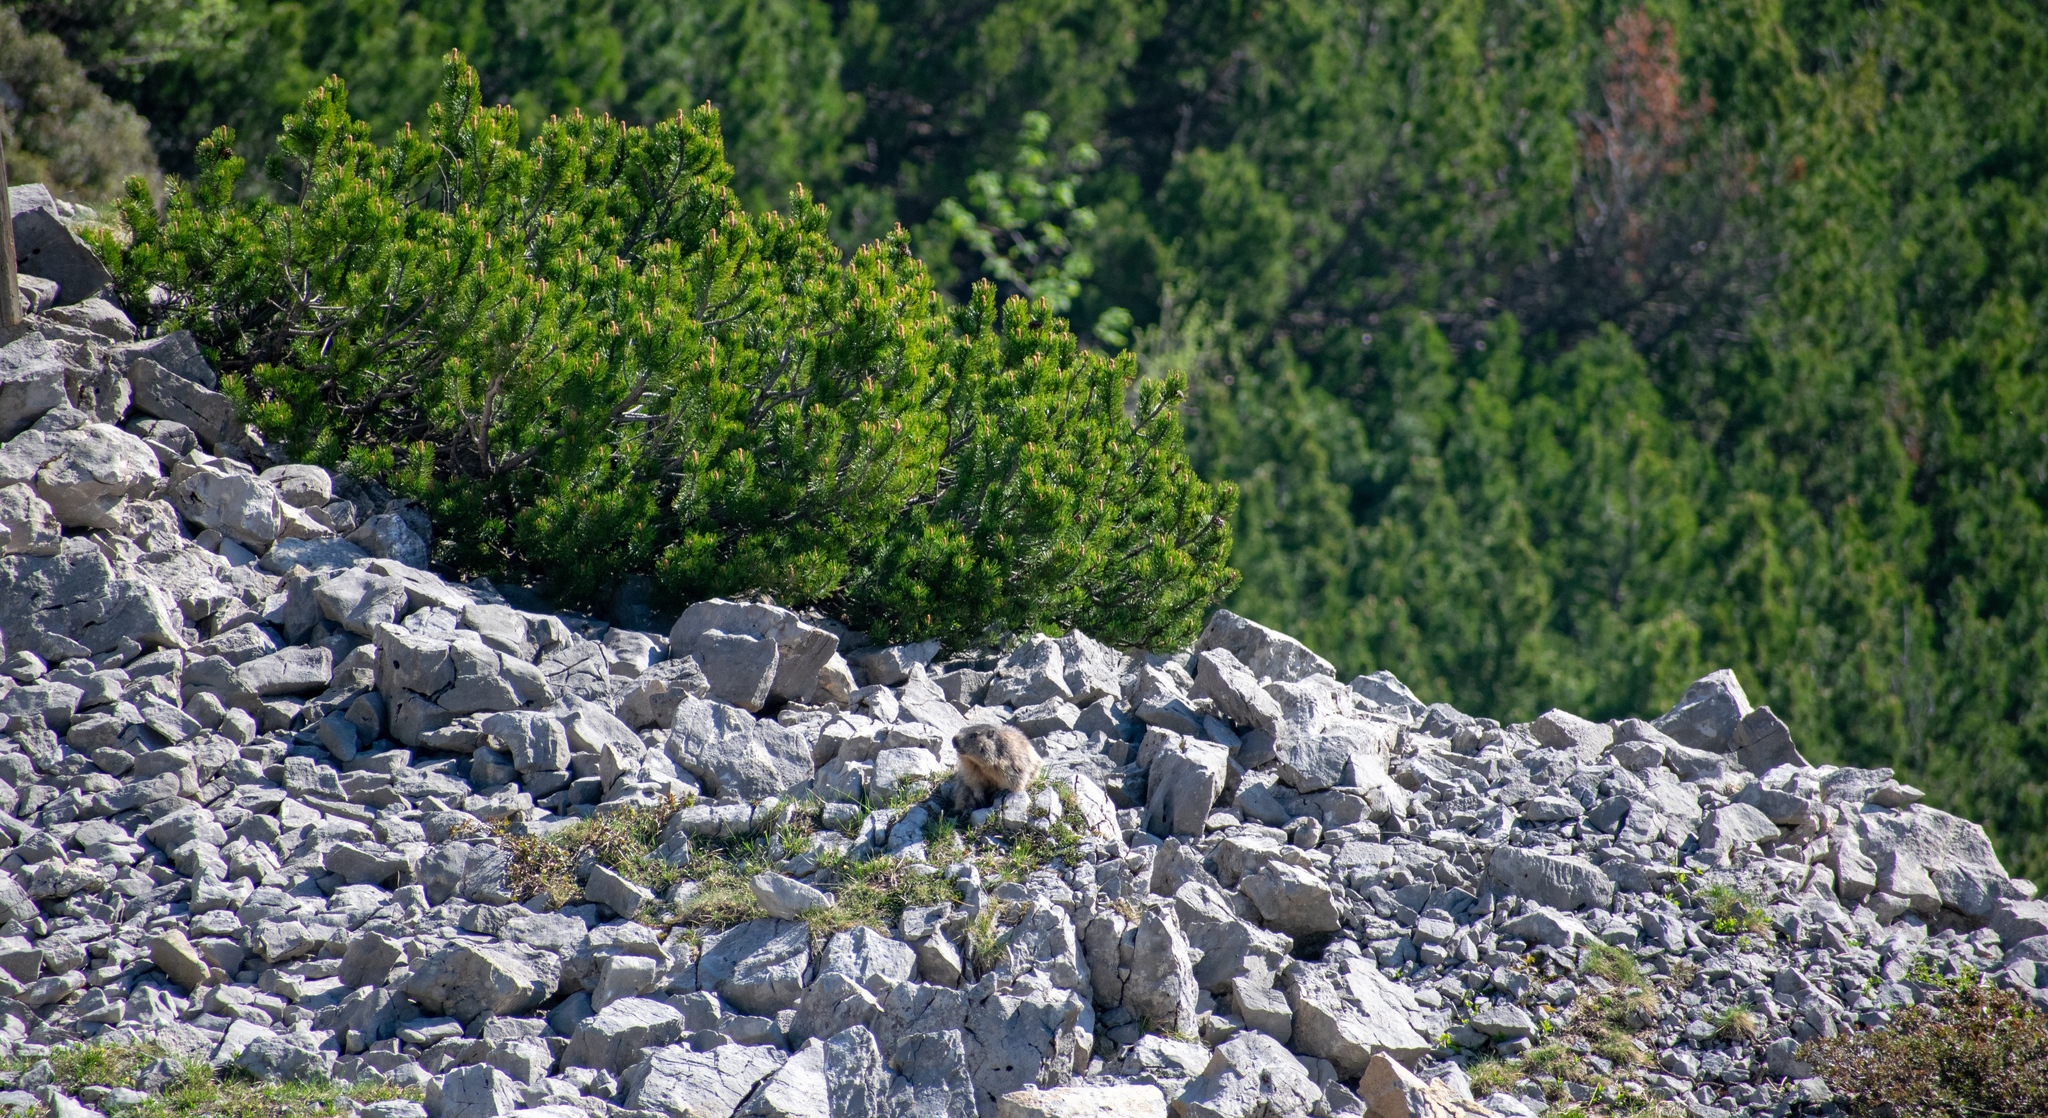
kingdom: Animalia
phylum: Chordata
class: Mammalia
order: Rodentia
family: Sciuridae
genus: Marmota
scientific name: Marmota marmota
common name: Alpine marmot
